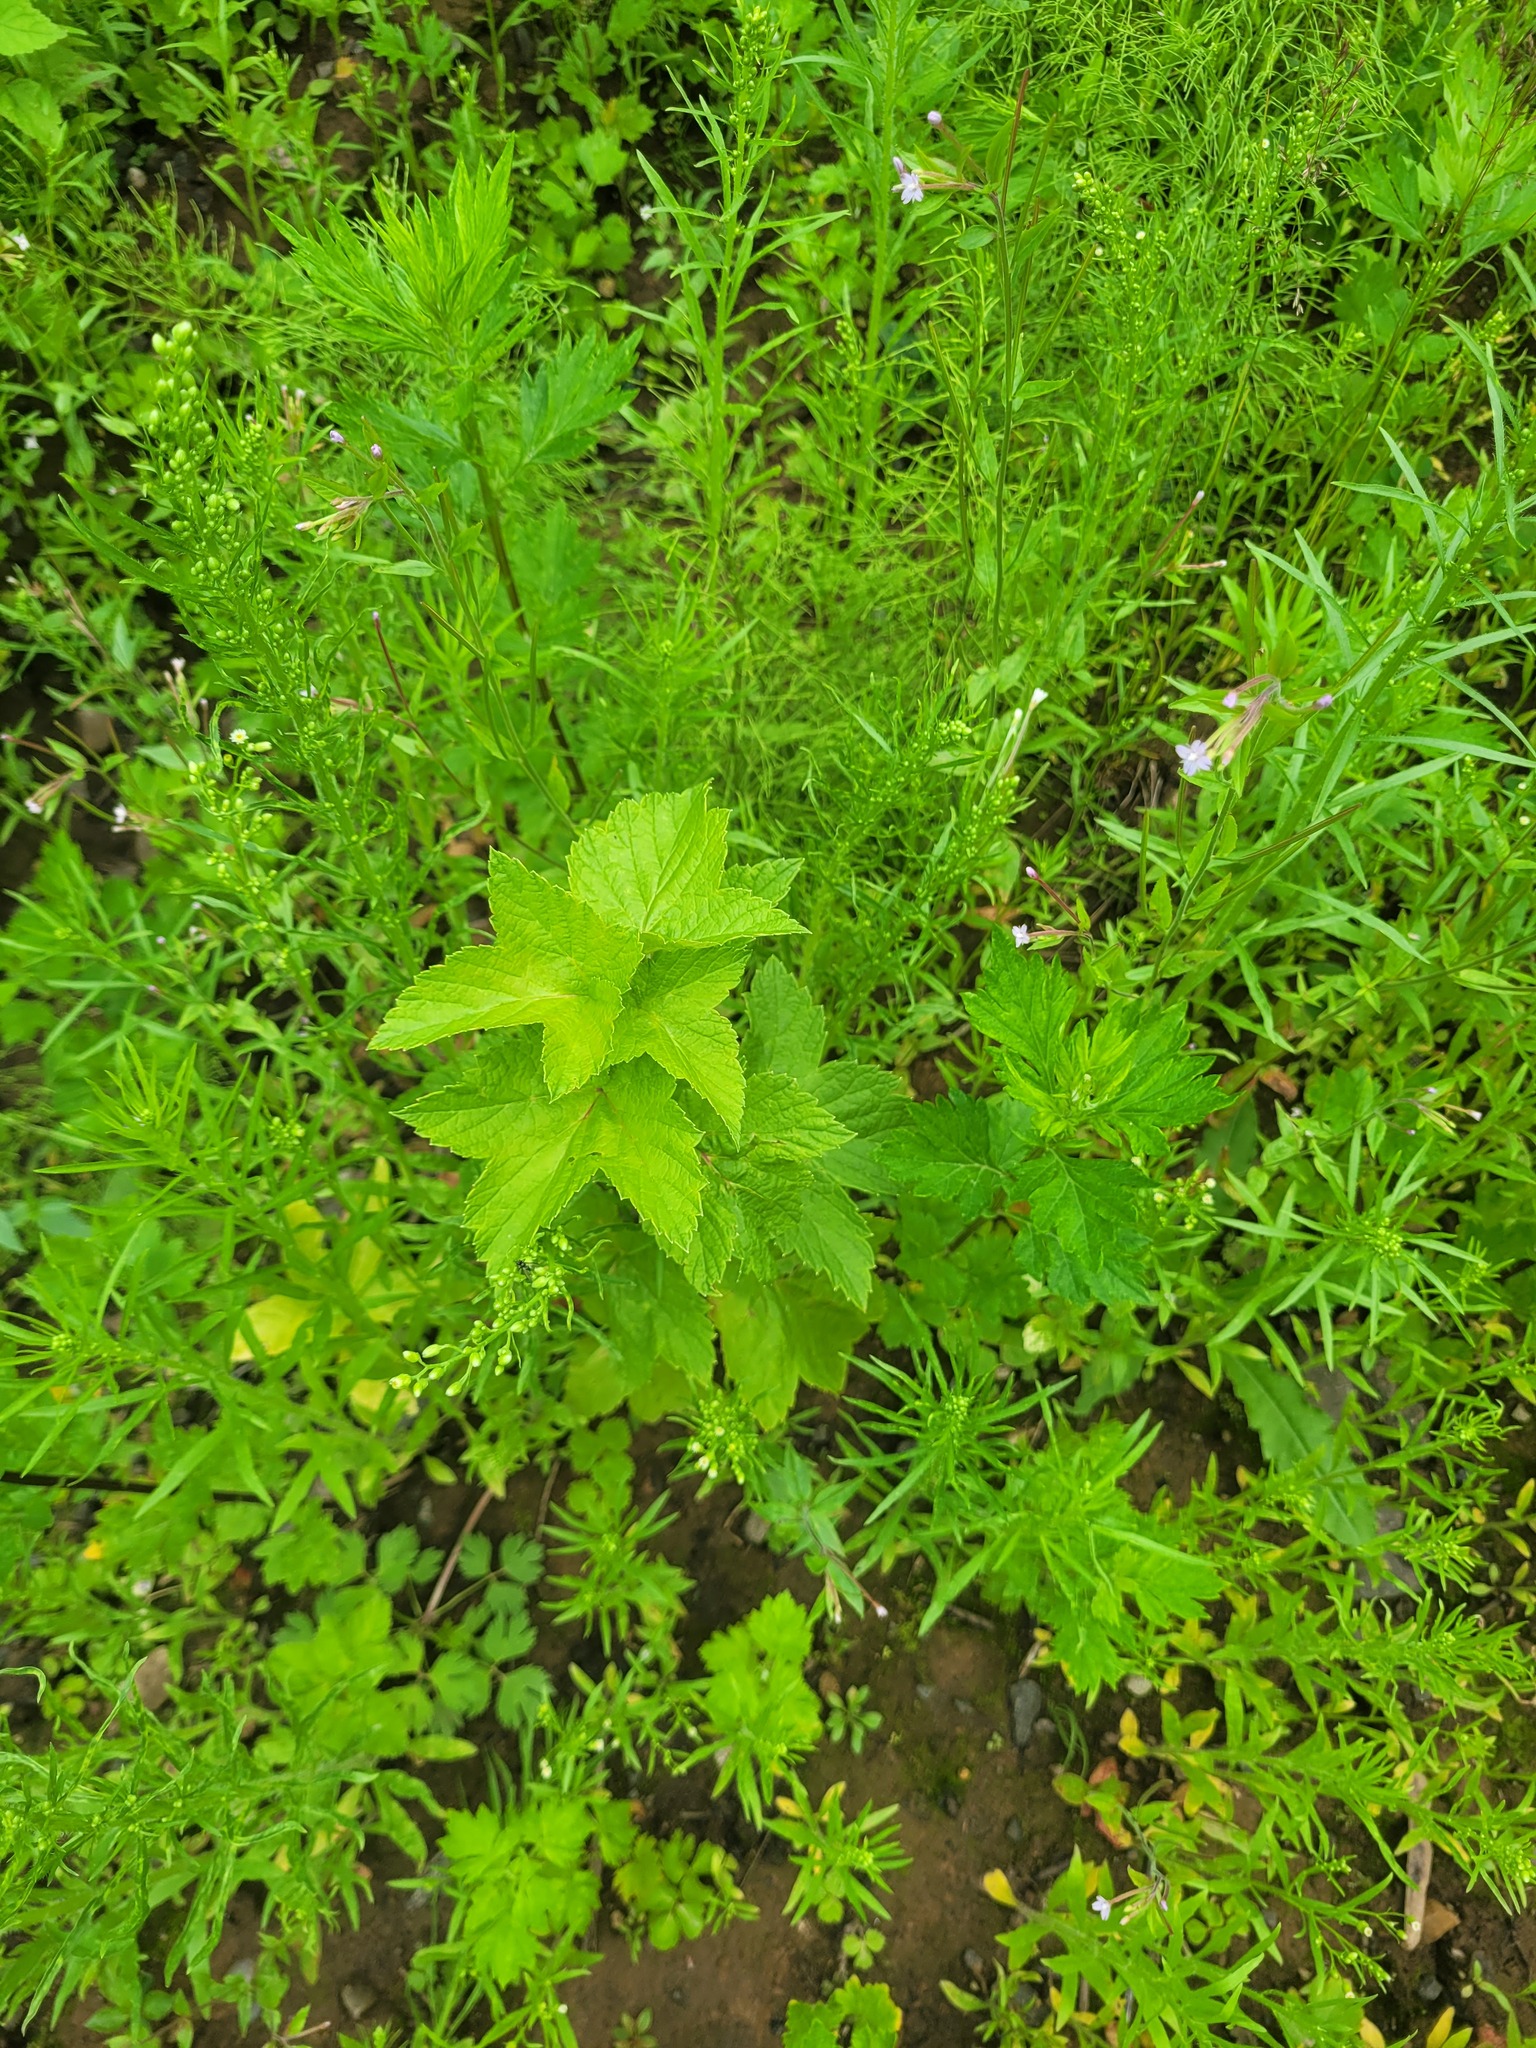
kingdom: Plantae
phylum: Tracheophyta
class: Magnoliopsida
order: Saxifragales
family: Grossulariaceae
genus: Ribes
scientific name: Ribes nigrum
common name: Black currant
